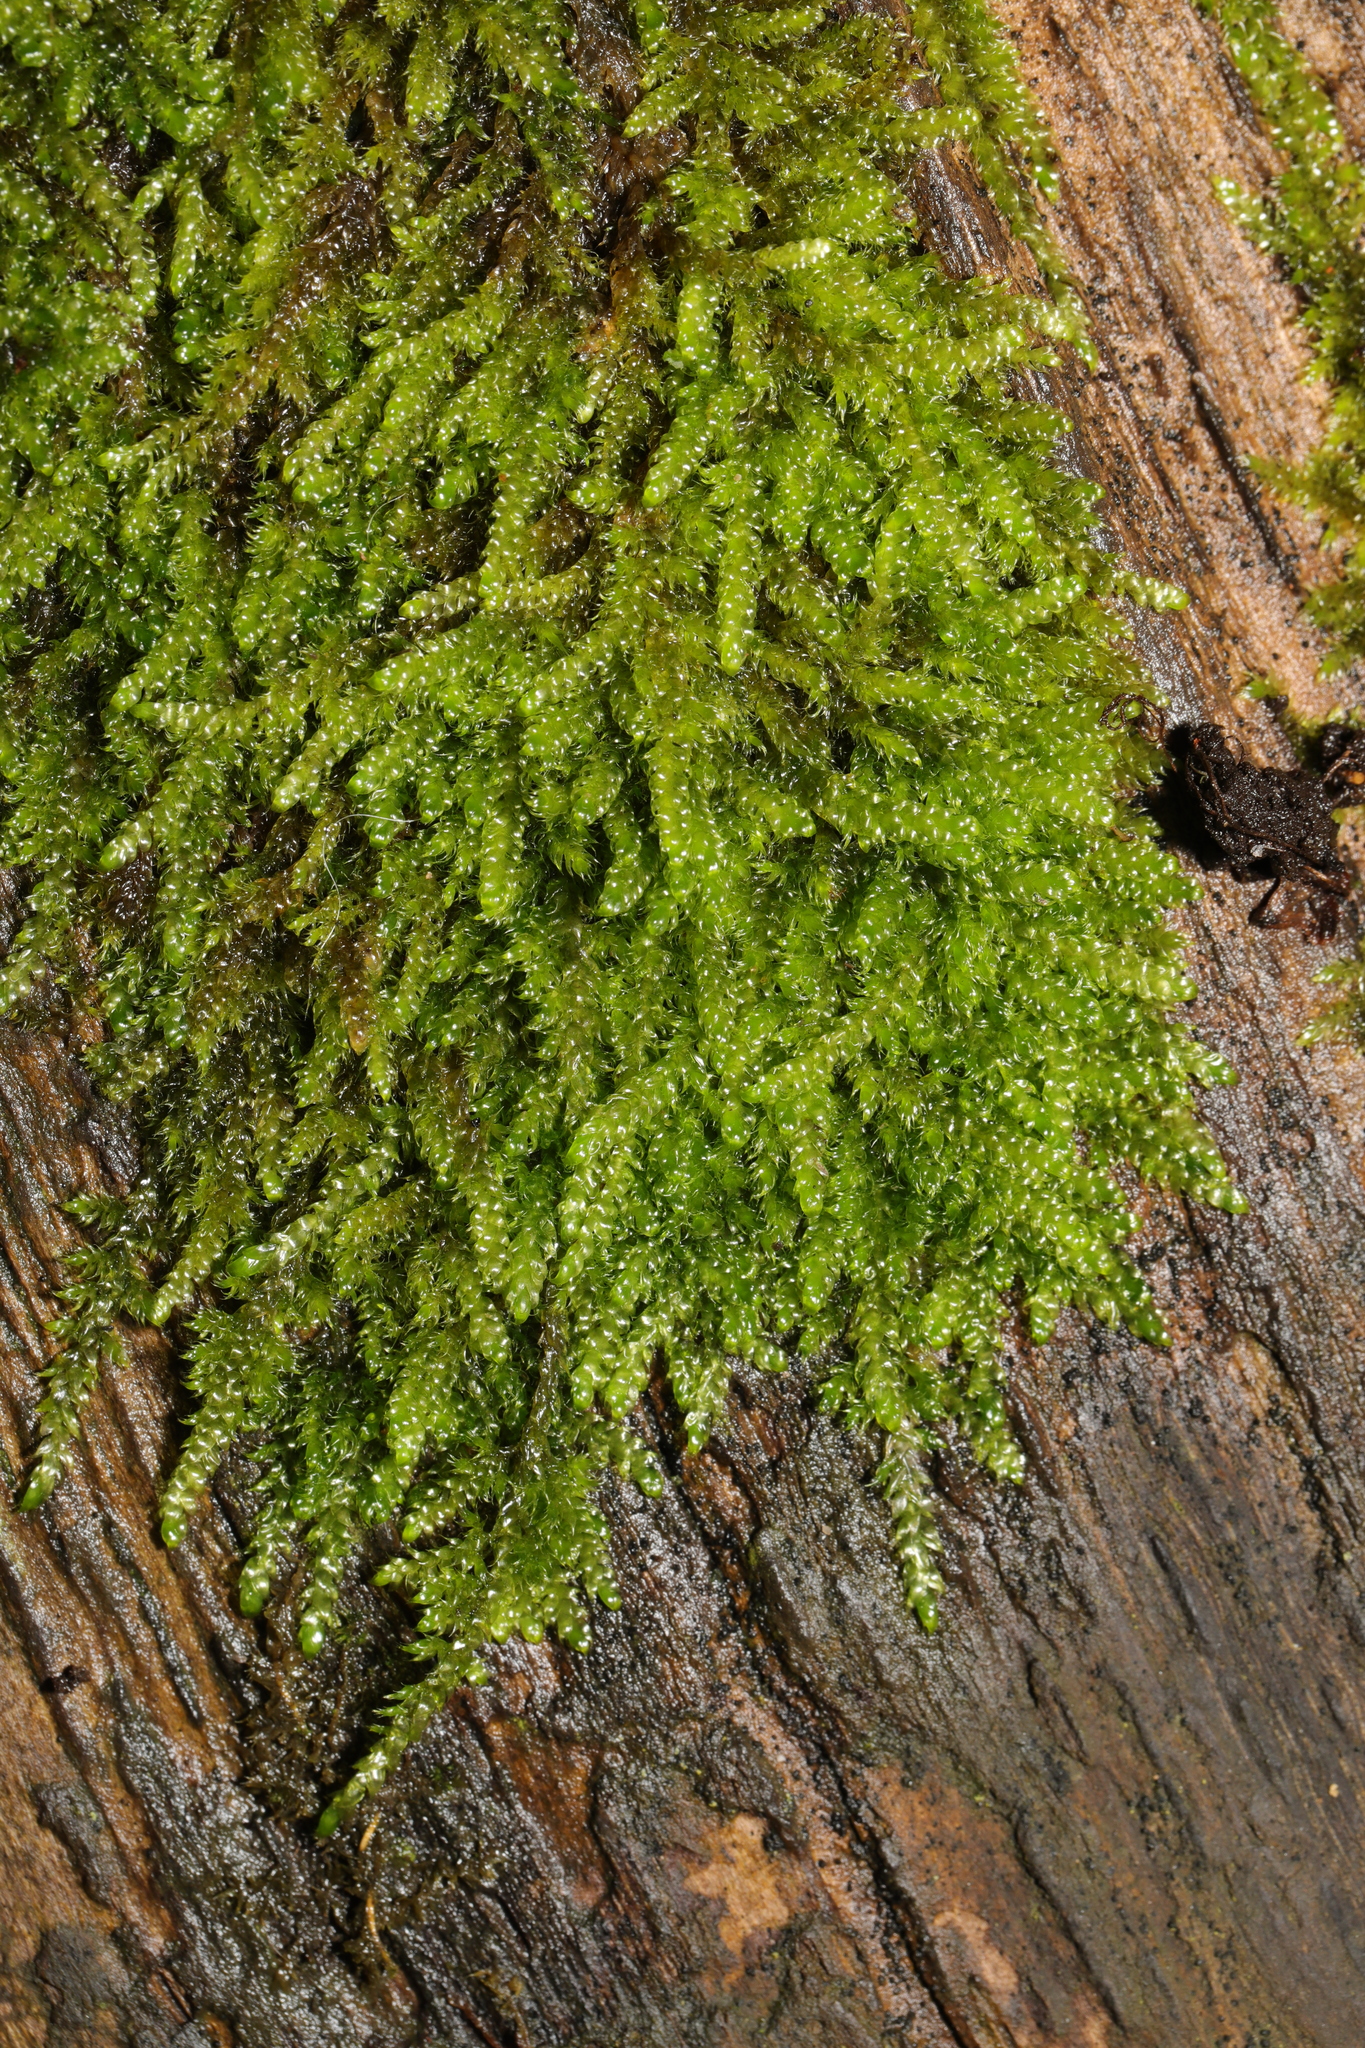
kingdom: Plantae
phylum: Bryophyta
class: Bryopsida
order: Hypnales
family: Hypnaceae
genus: Hypnum
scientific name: Hypnum cupressiforme
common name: Cypress-leaved plait-moss
